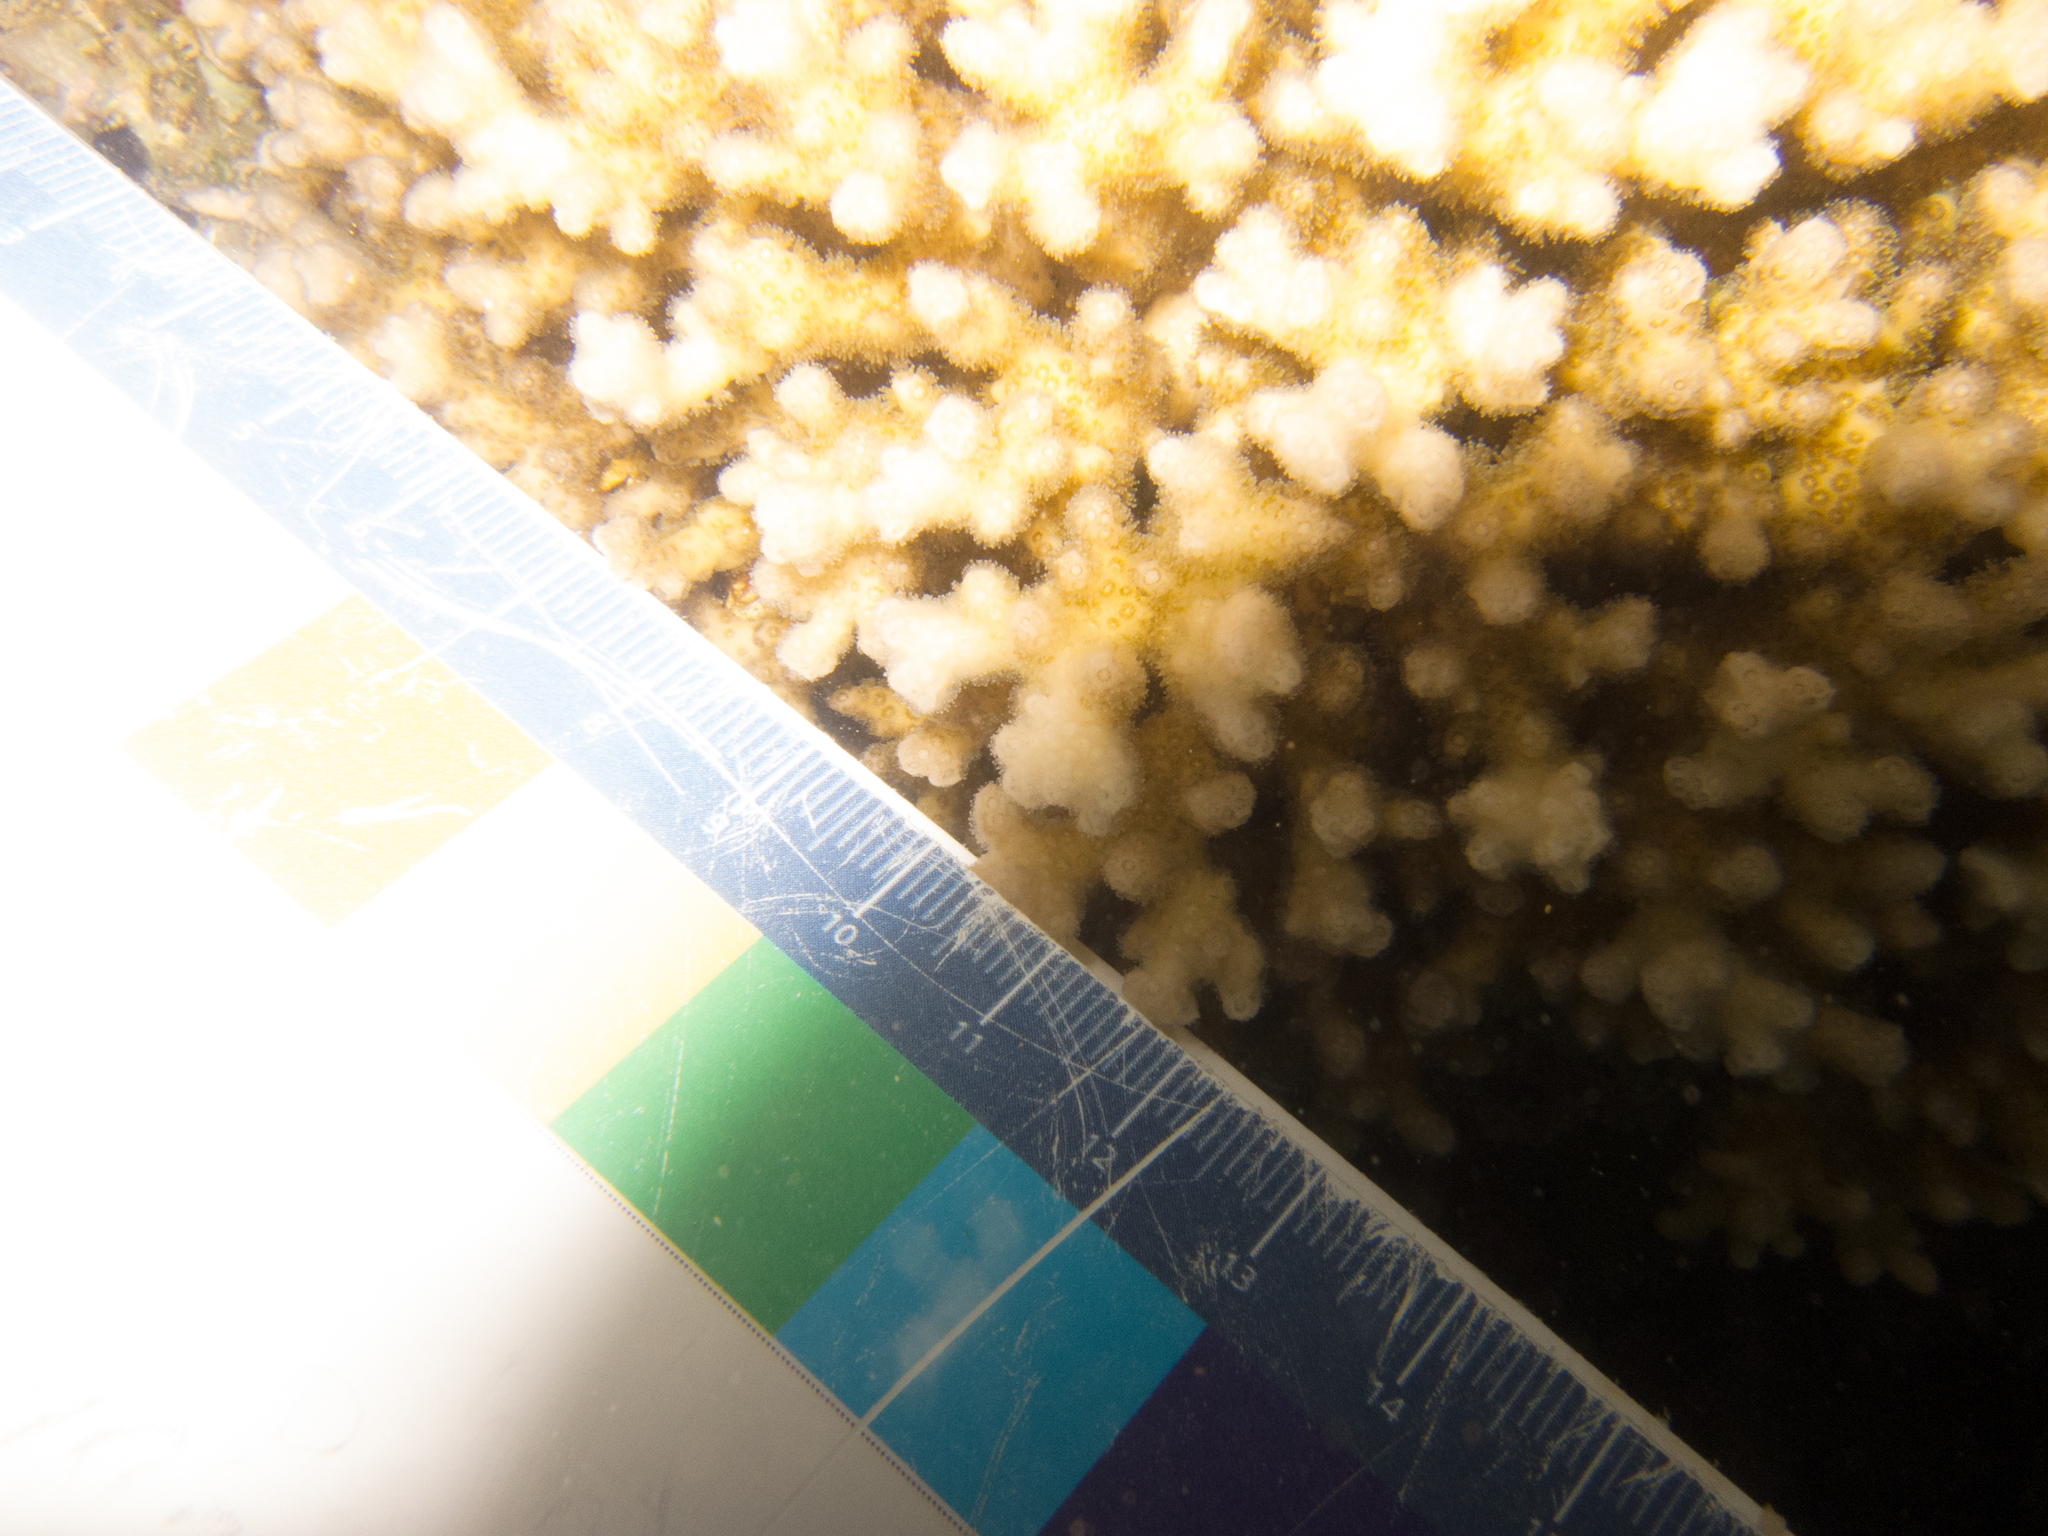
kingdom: Animalia
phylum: Cnidaria
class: Anthozoa
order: Scleractinia
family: Pocilloporidae
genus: Pocillopora
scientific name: Pocillopora damicornis
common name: Cauliflower coral
